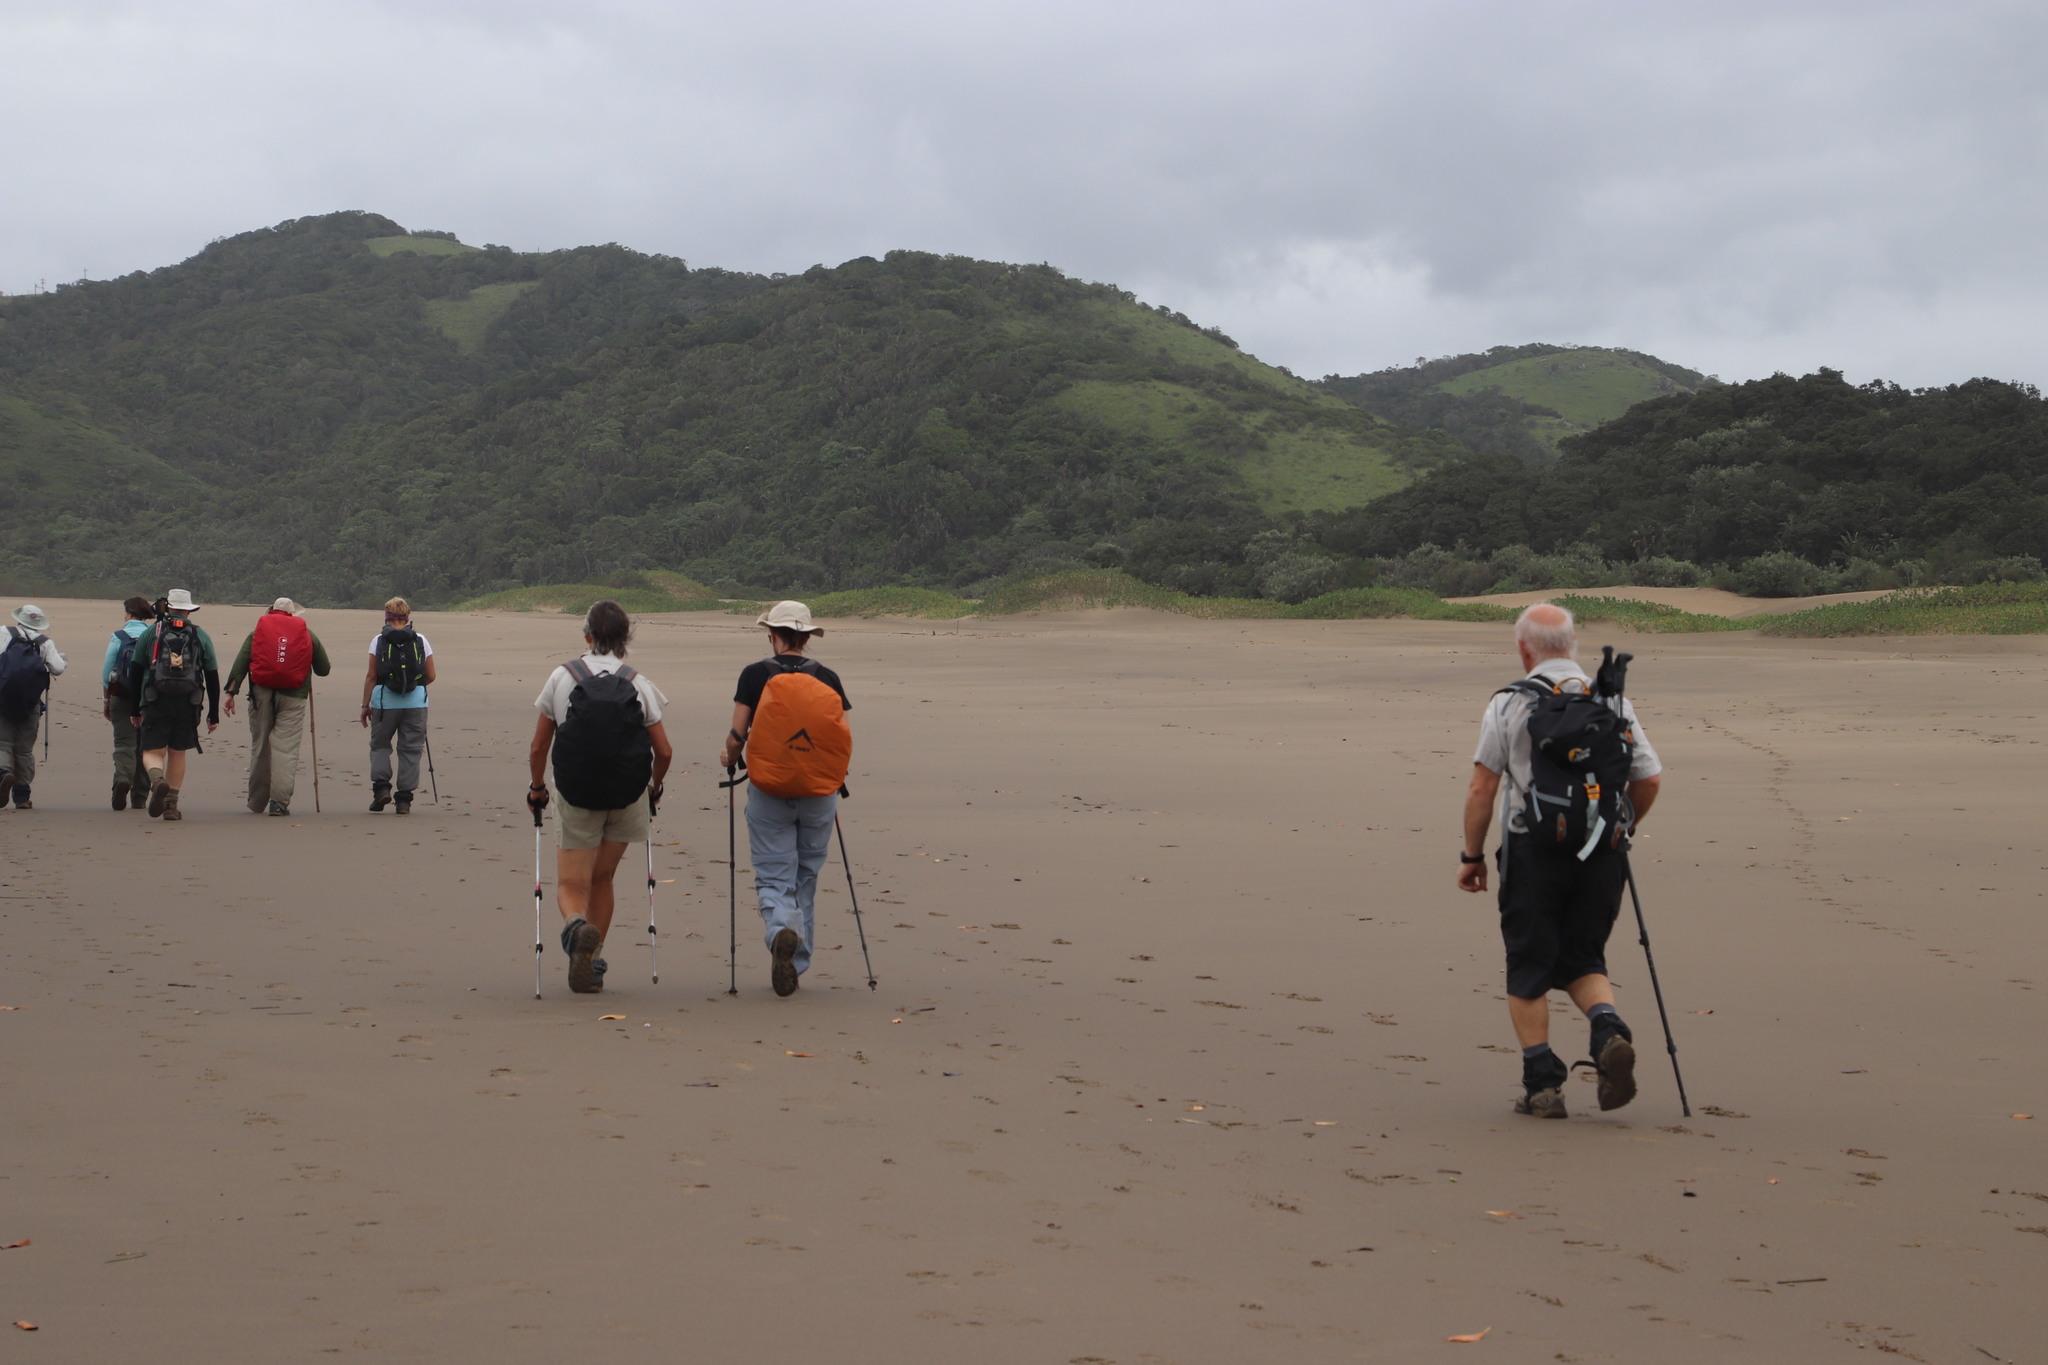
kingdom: Plantae
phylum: Tracheophyta
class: Magnoliopsida
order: Asterales
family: Goodeniaceae
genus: Scaevola
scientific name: Scaevola plumieri
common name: Gull feed
